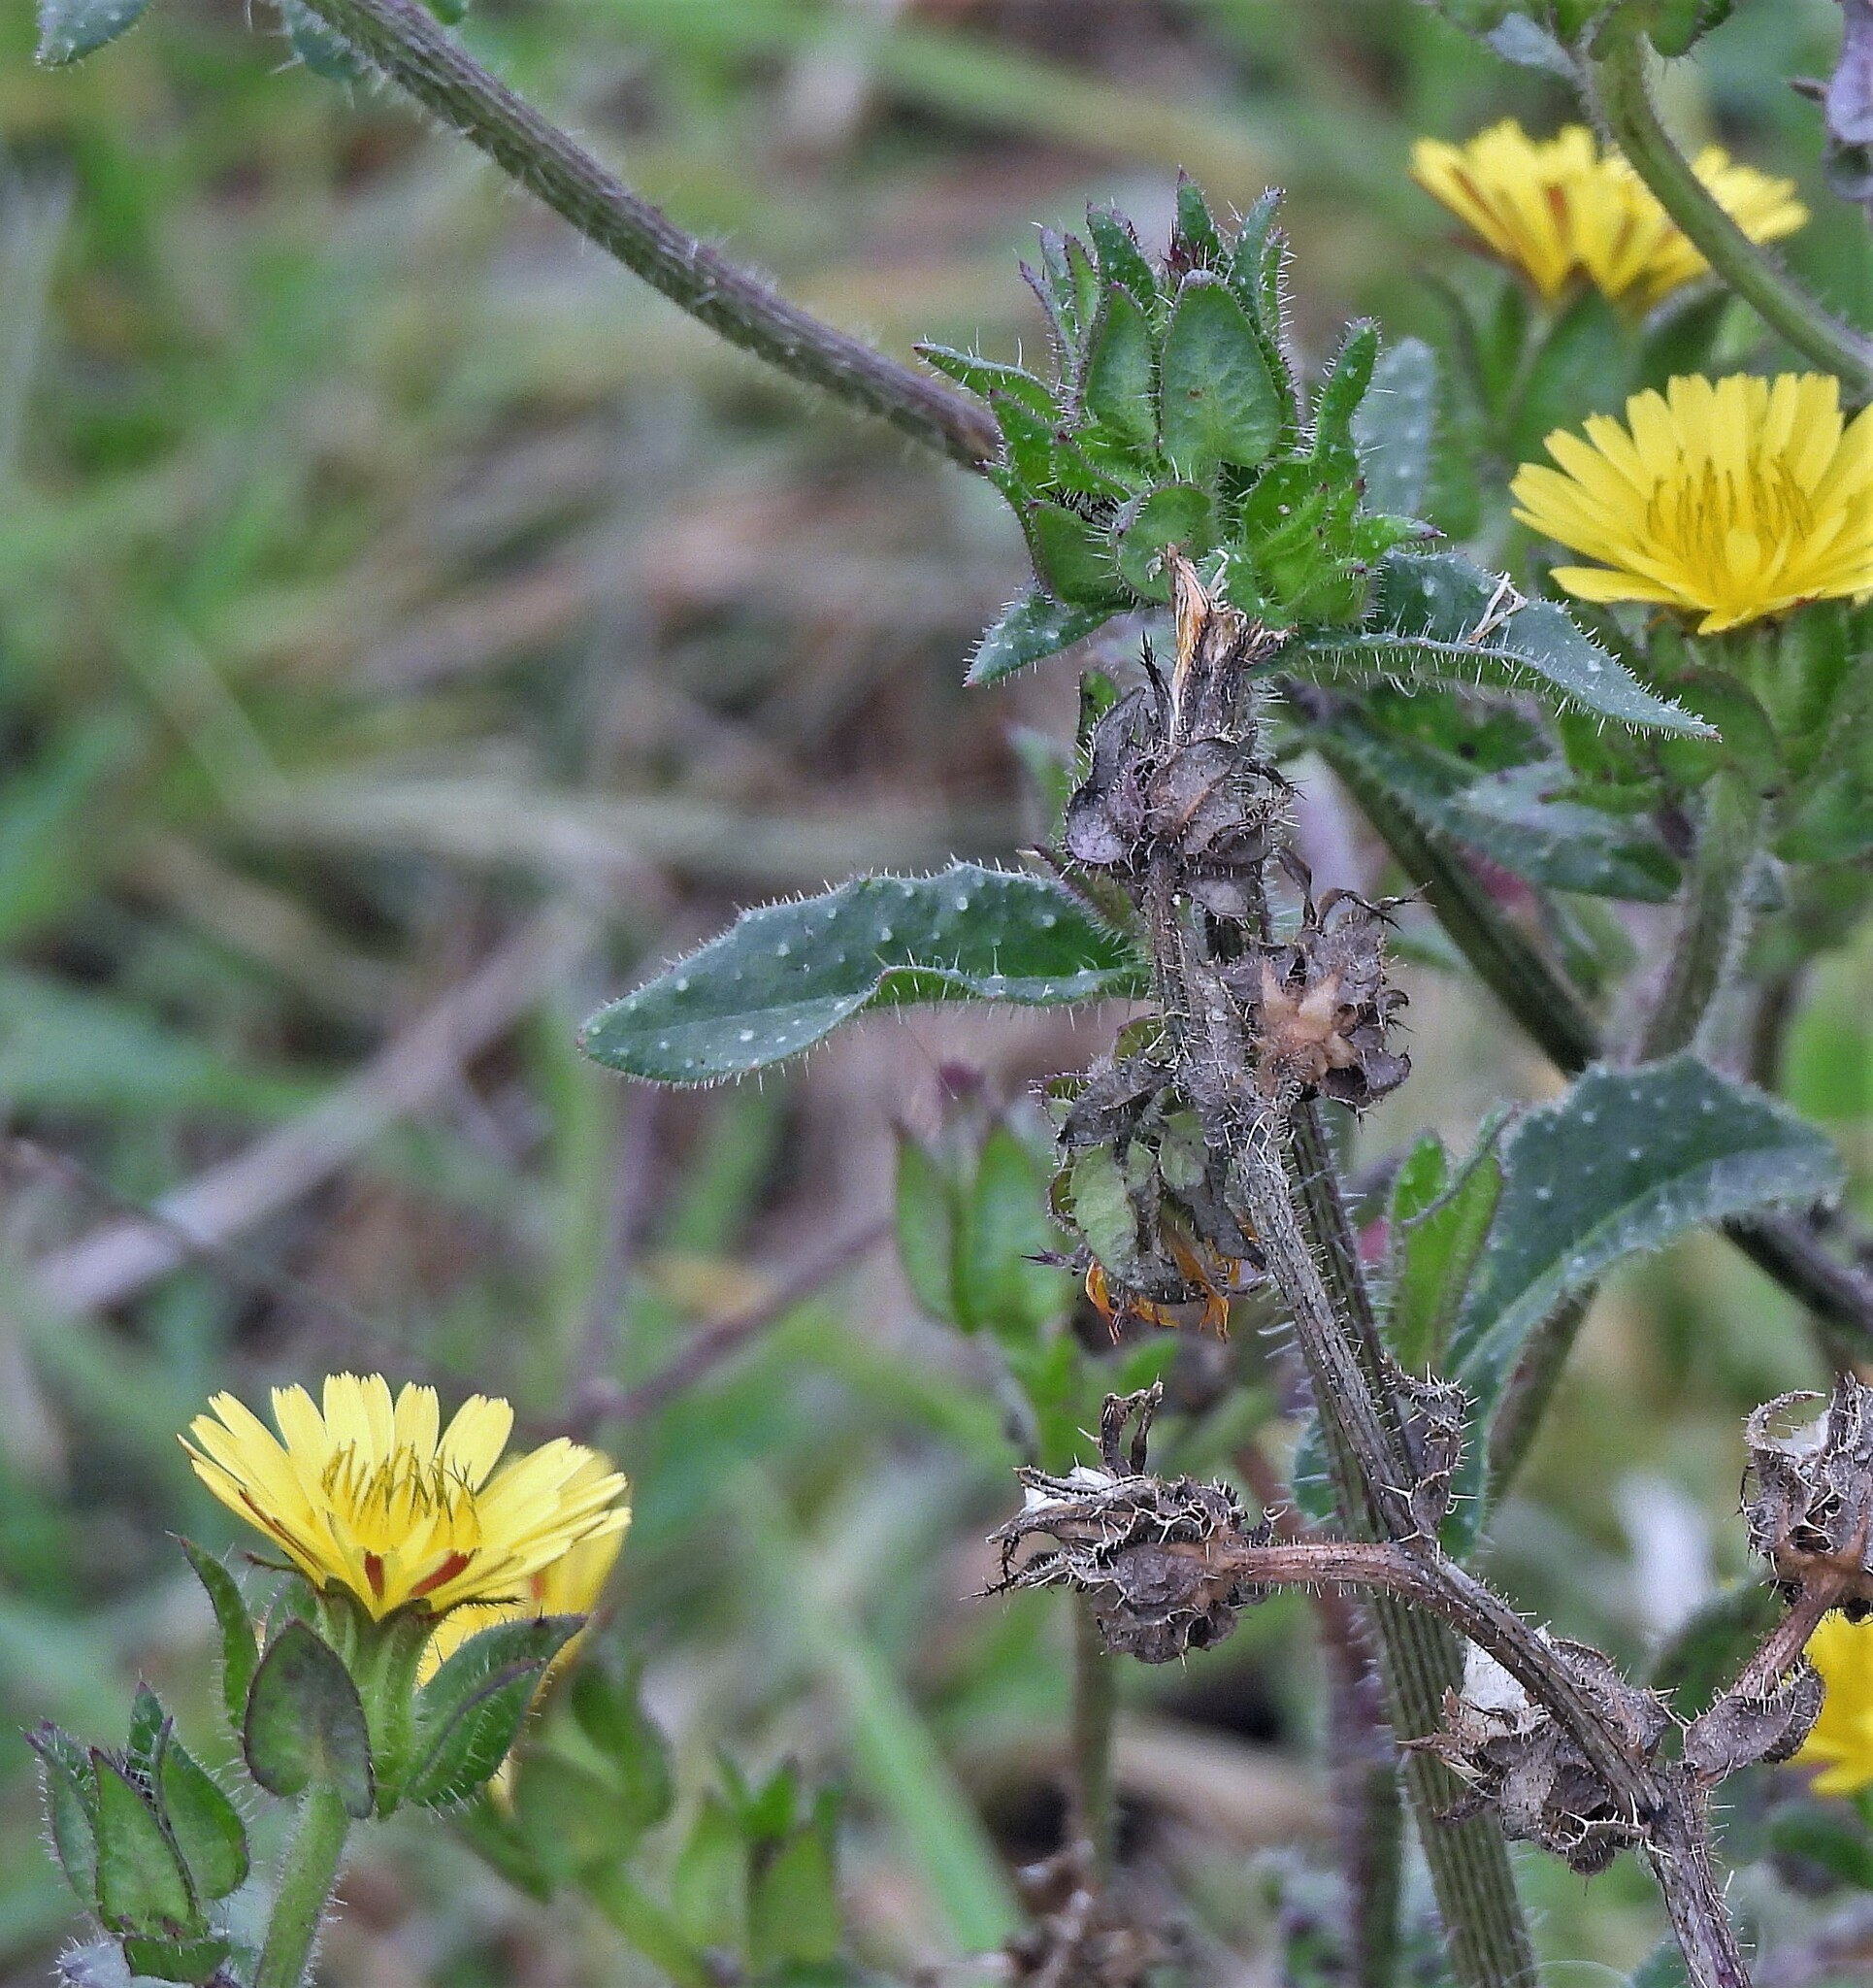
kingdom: Plantae
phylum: Tracheophyta
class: Magnoliopsida
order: Asterales
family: Asteraceae
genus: Helminthotheca
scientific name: Helminthotheca echioides
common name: Ox-tongue
